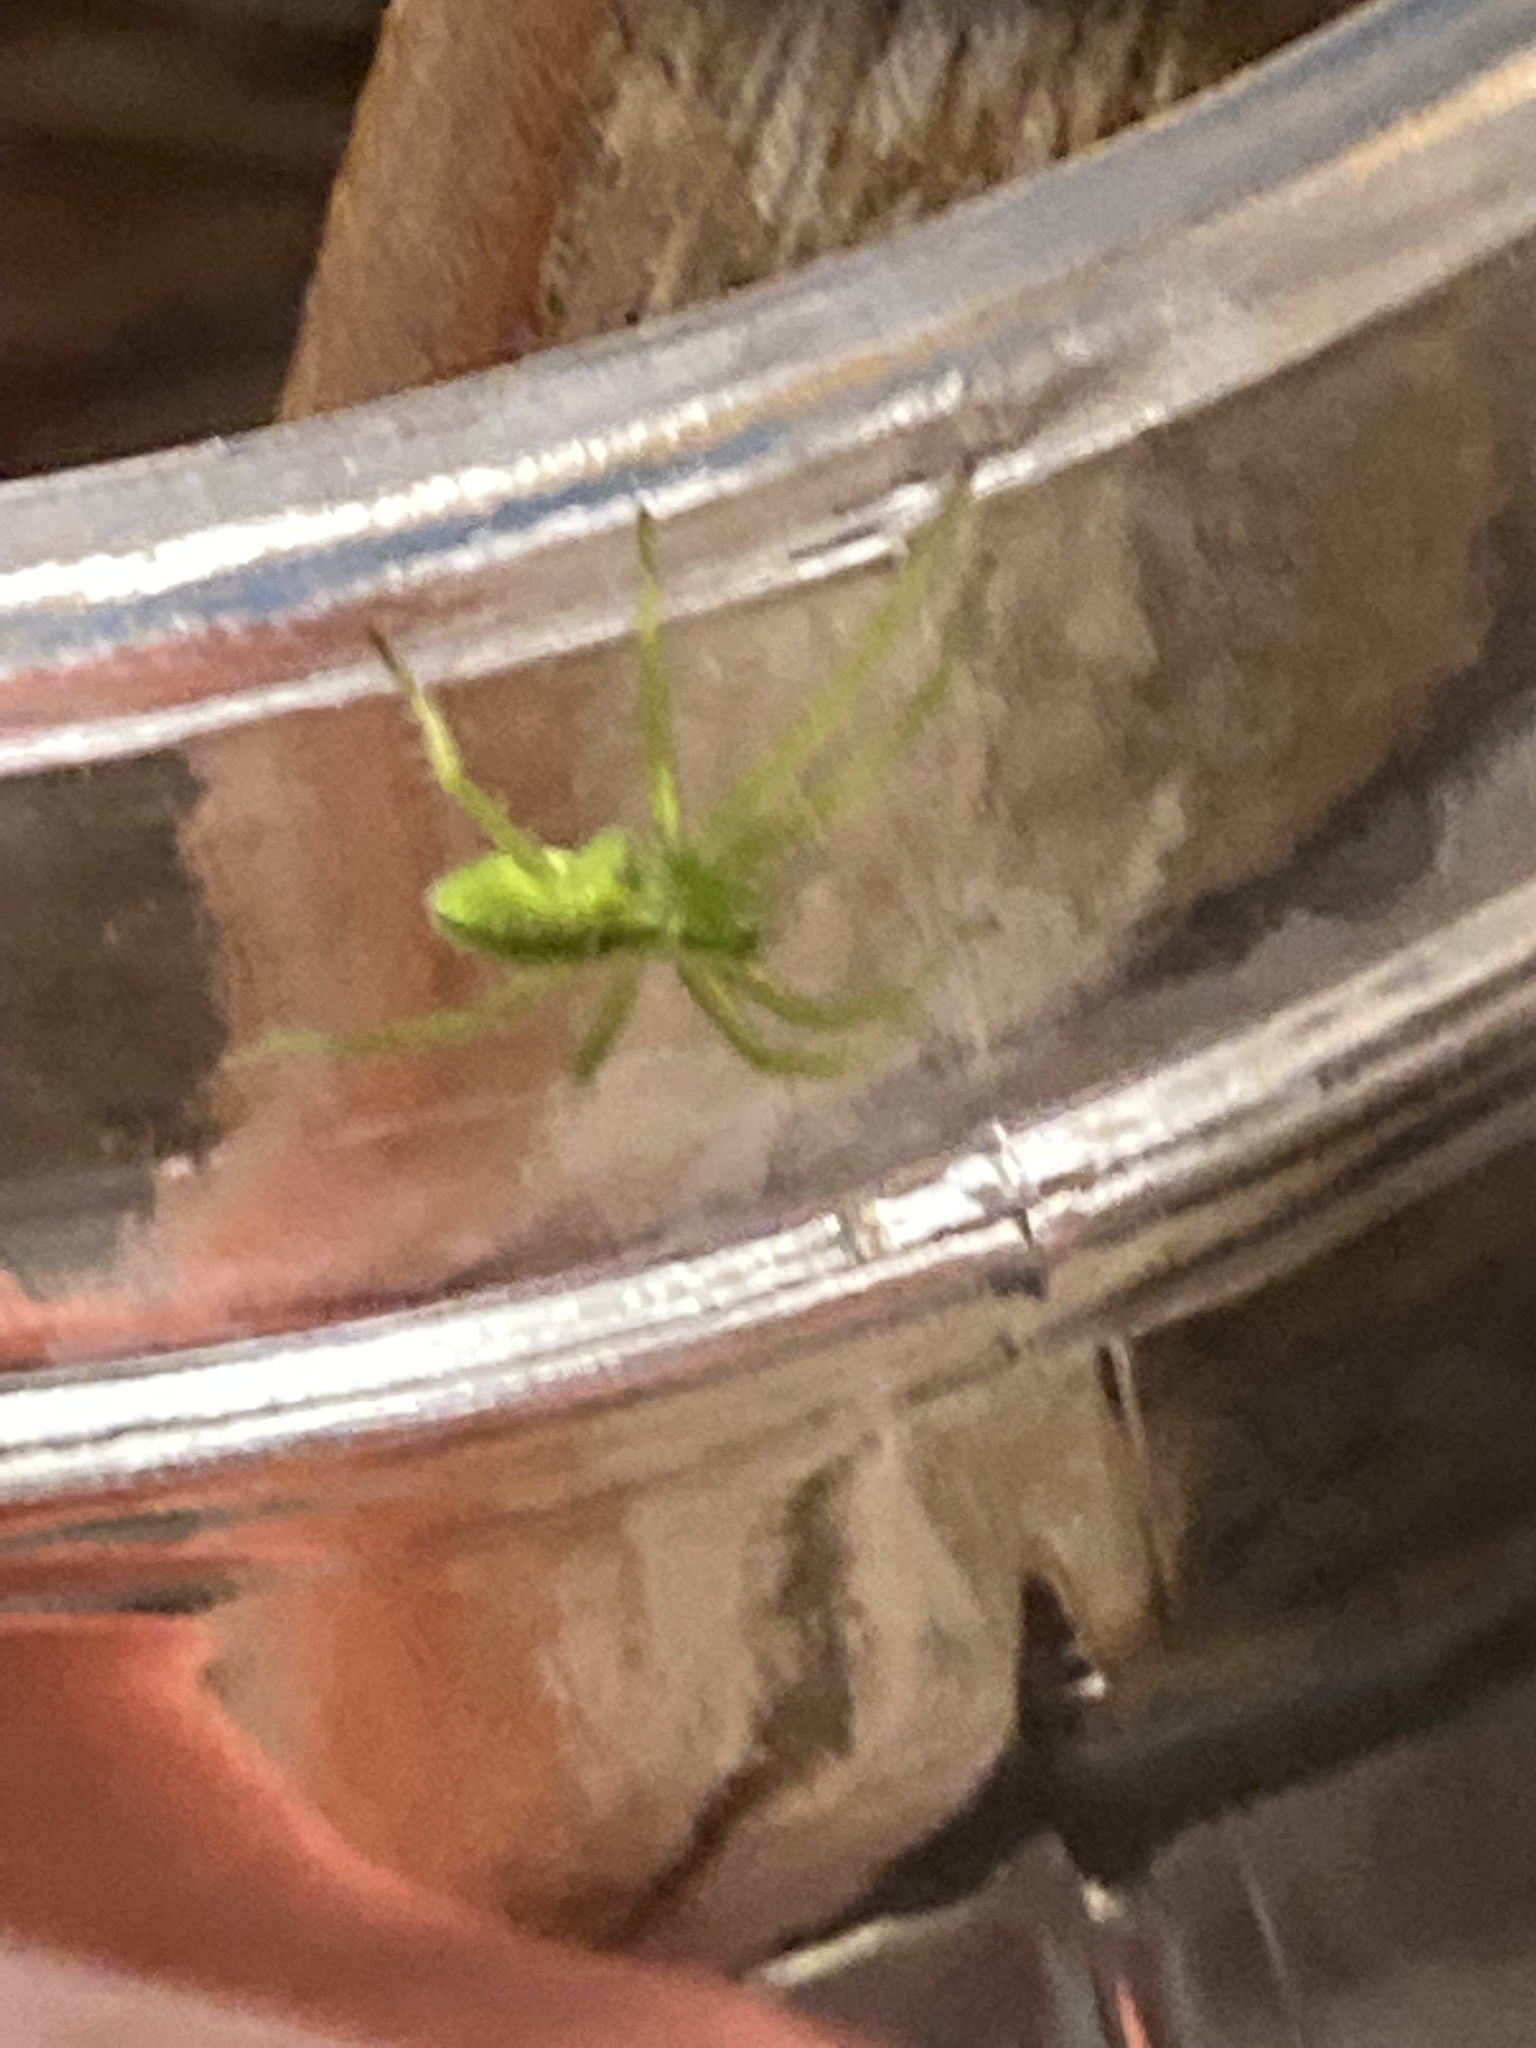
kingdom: Animalia
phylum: Arthropoda
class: Arachnida
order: Araneae
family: Sparassidae
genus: Micrommata
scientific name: Micrommata virescens
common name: Green spider
